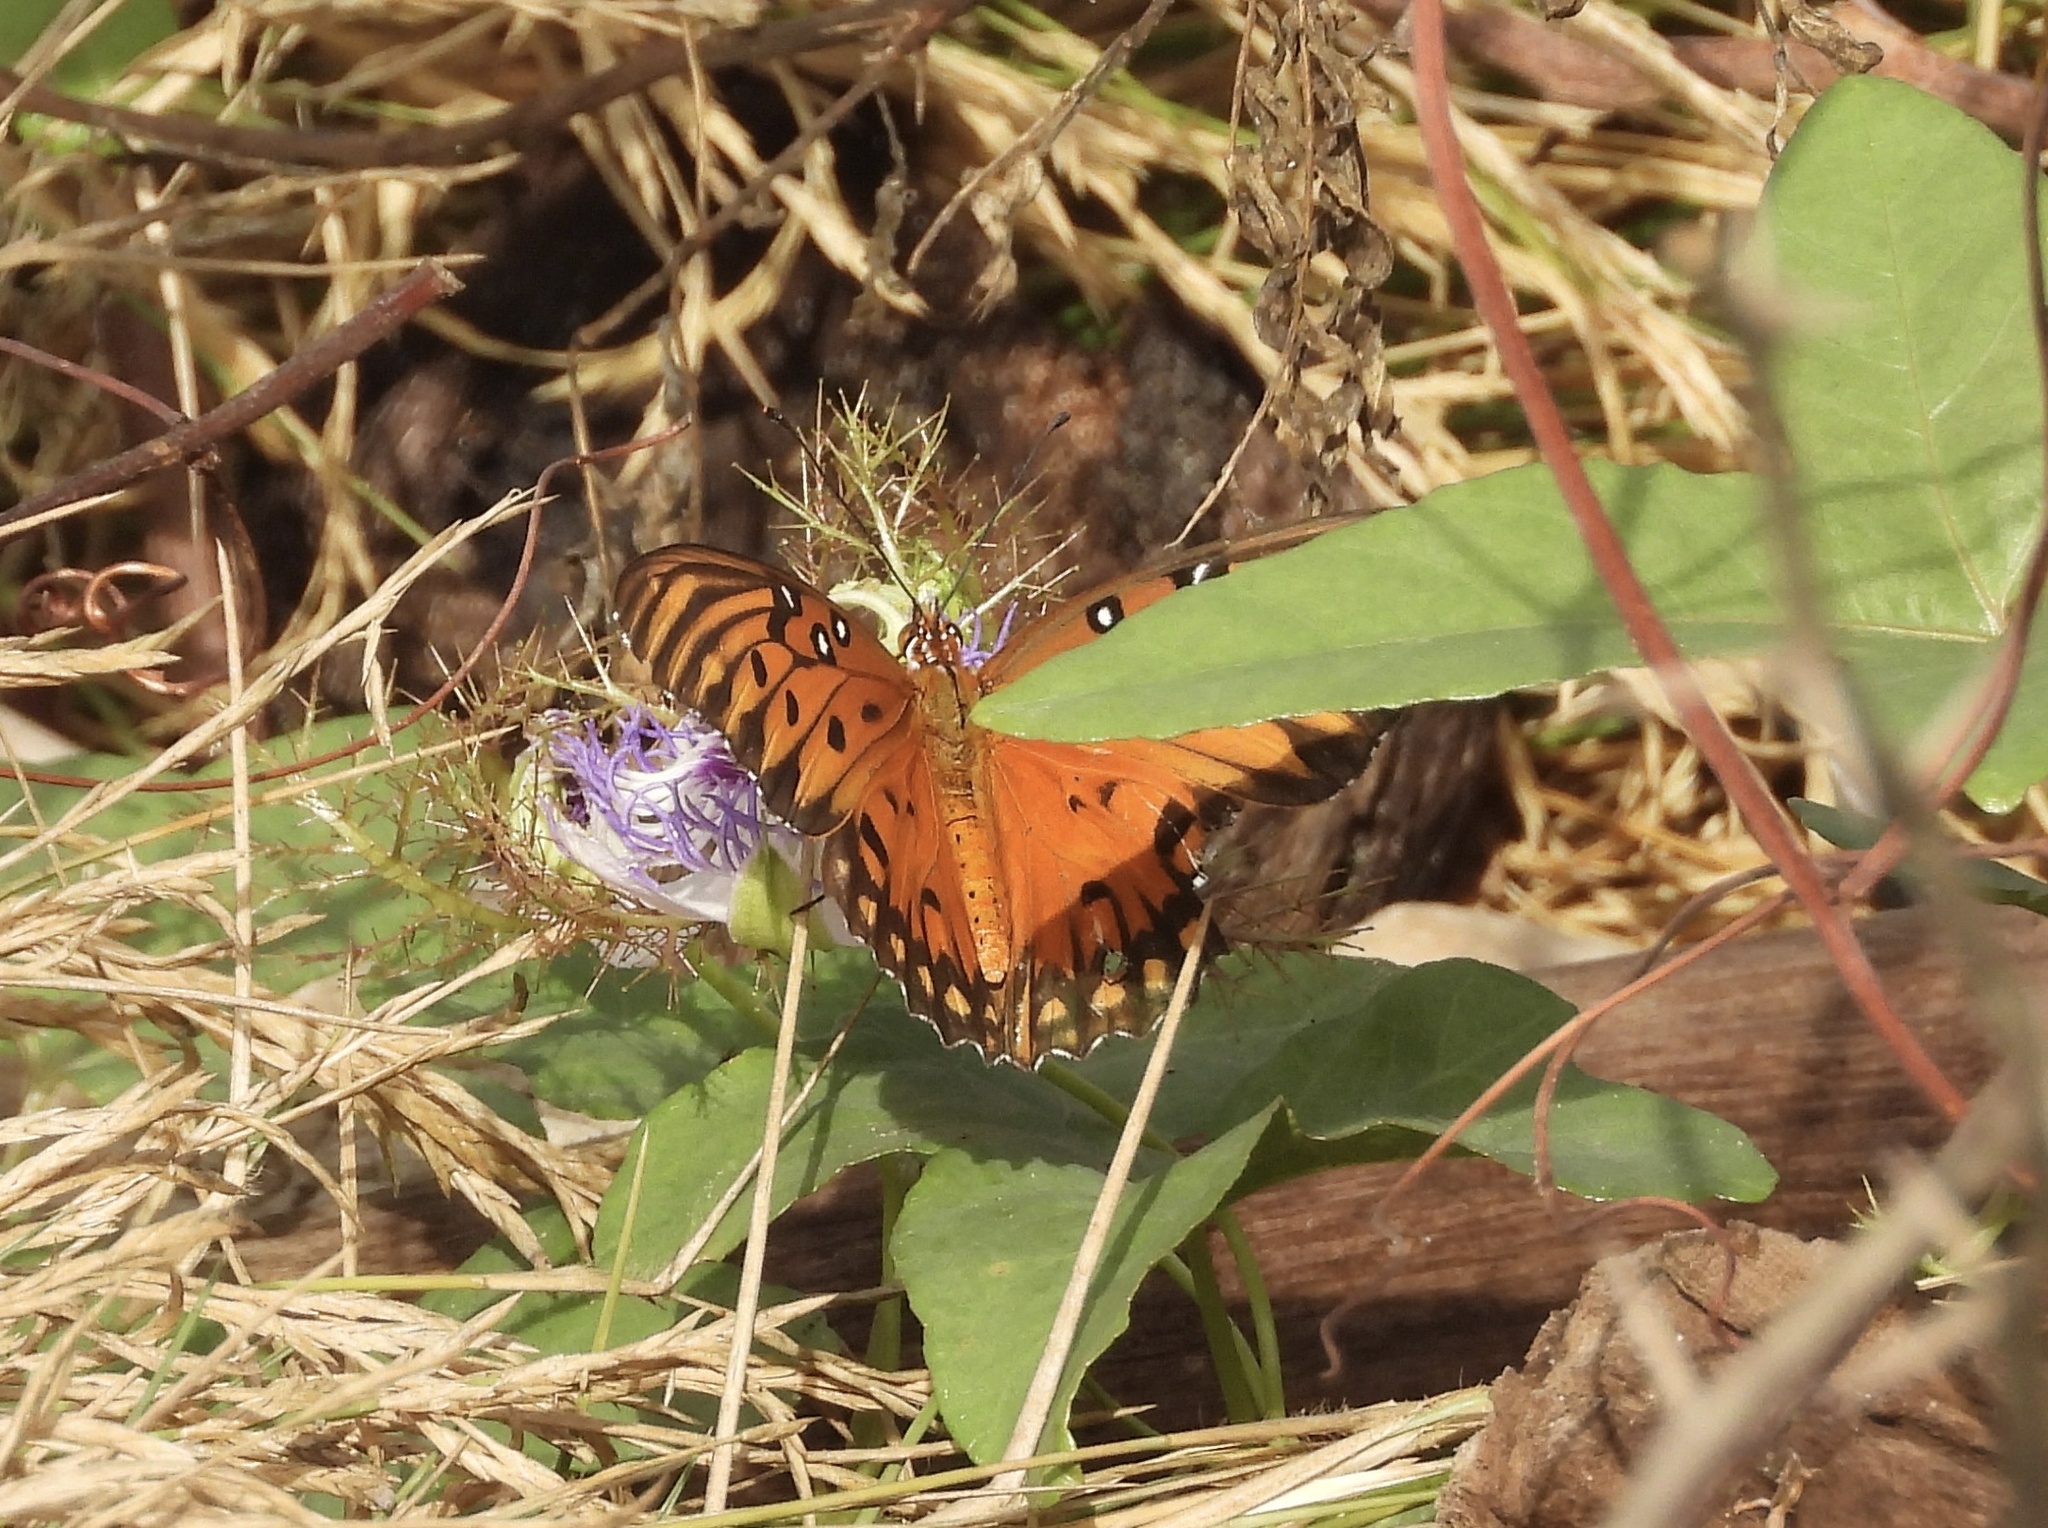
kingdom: Animalia
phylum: Arthropoda
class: Insecta
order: Lepidoptera
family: Nymphalidae
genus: Dione
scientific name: Dione vanillae
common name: Gulf fritillary
